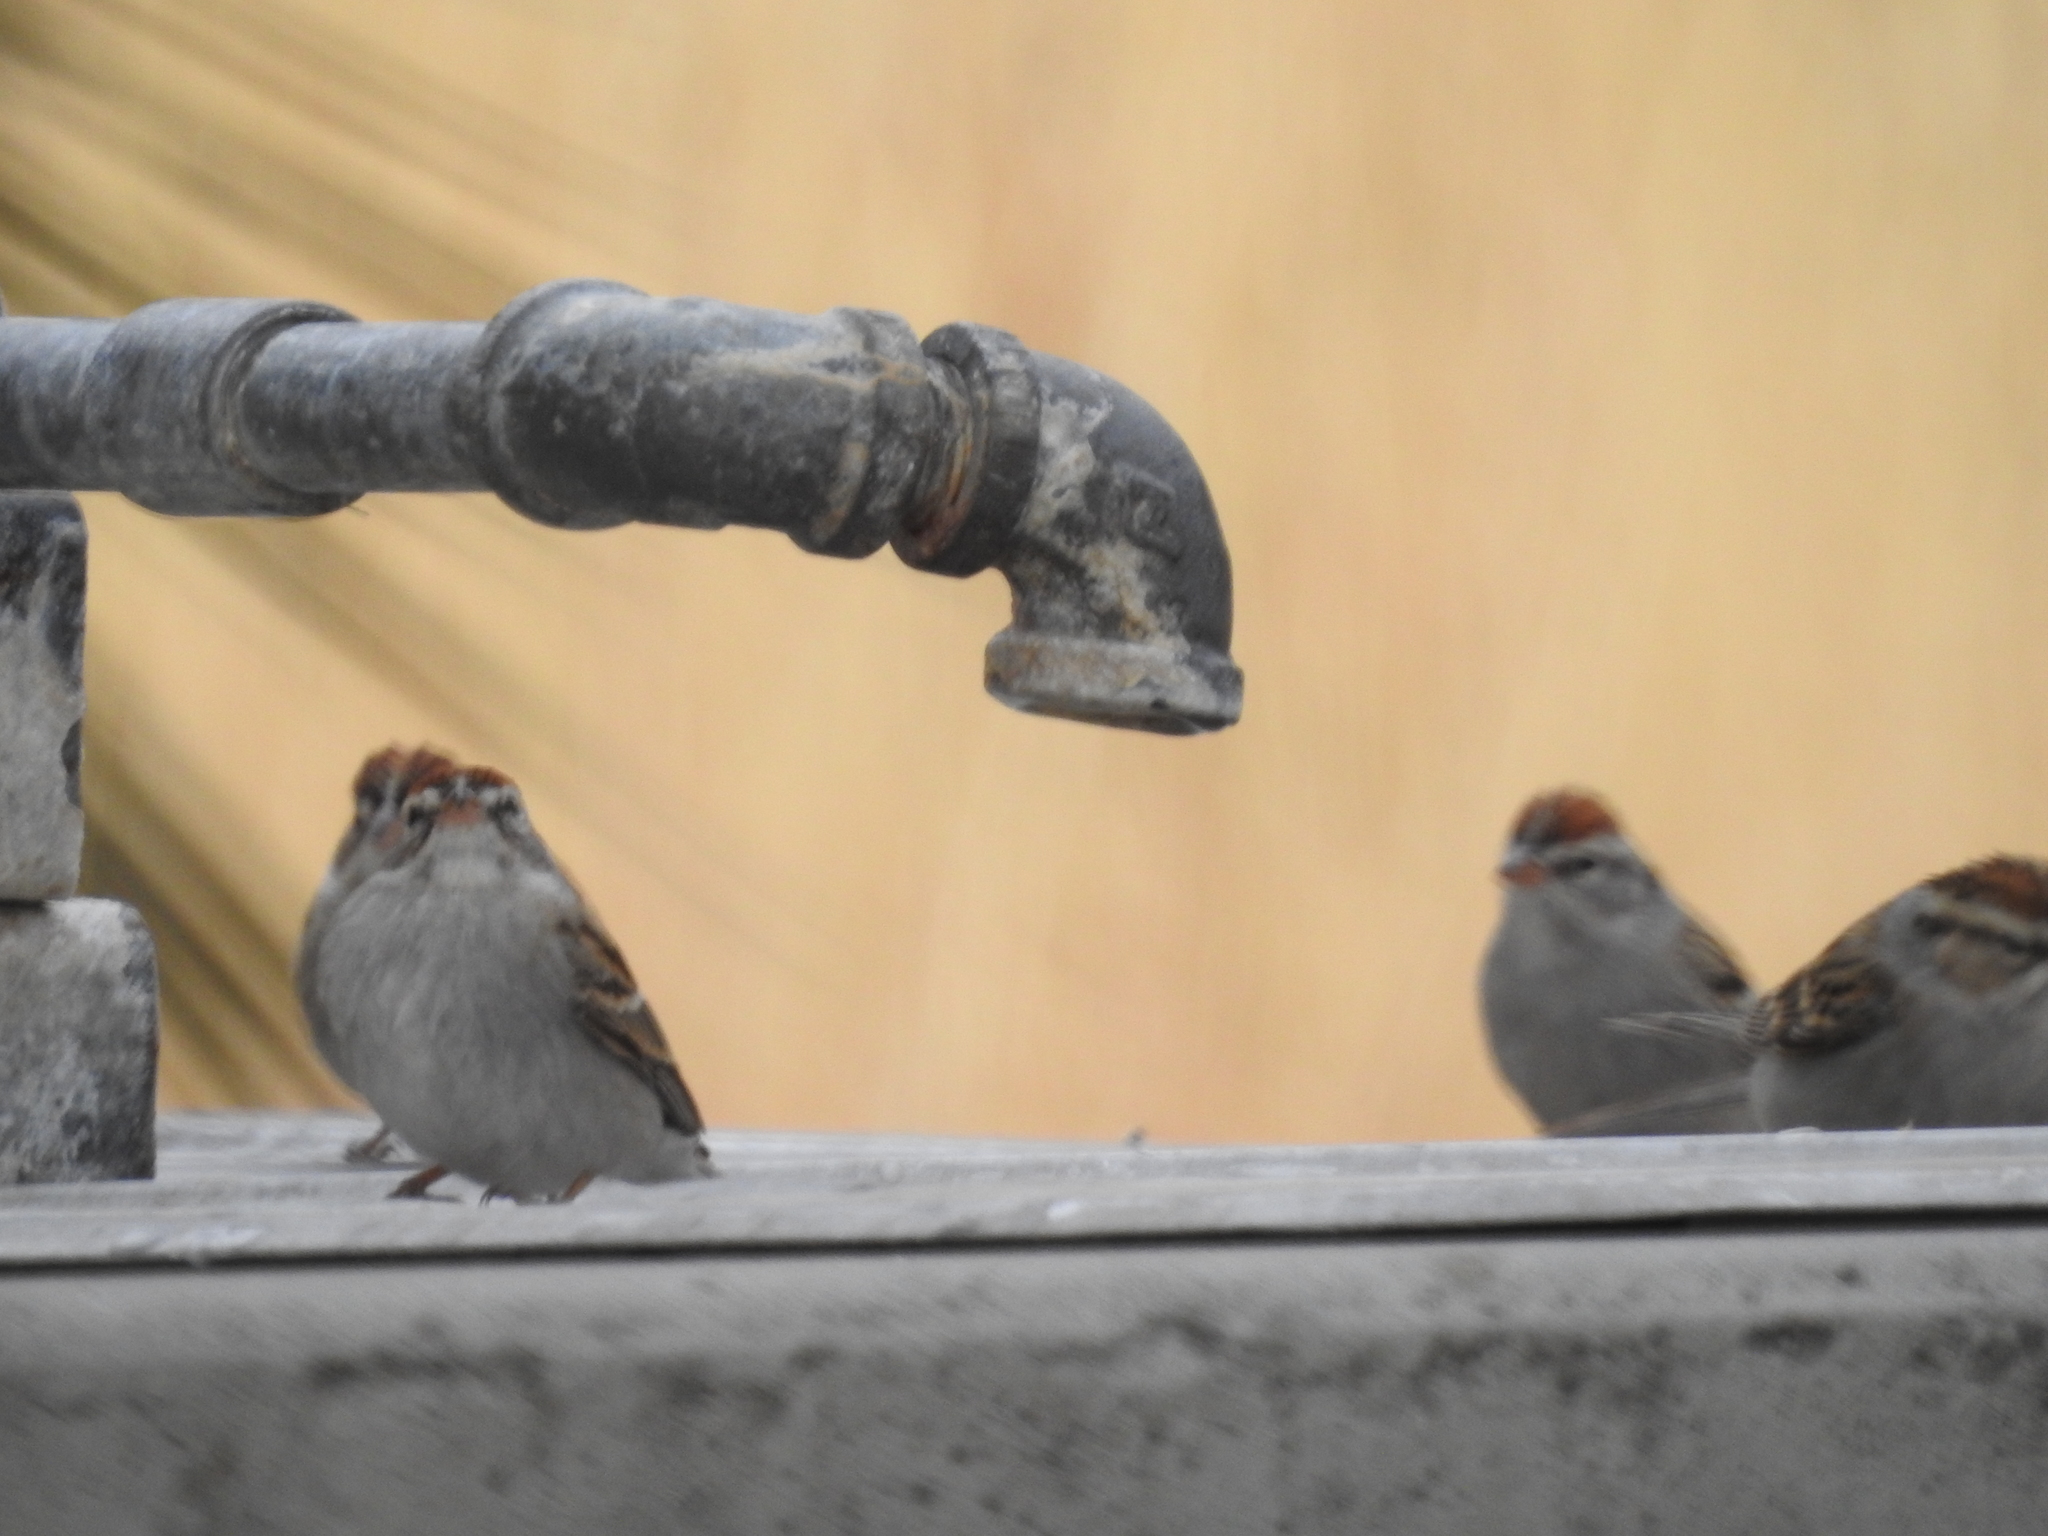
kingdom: Animalia
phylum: Chordata
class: Aves
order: Passeriformes
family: Passerellidae
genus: Spizella
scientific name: Spizella passerina
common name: Chipping sparrow
